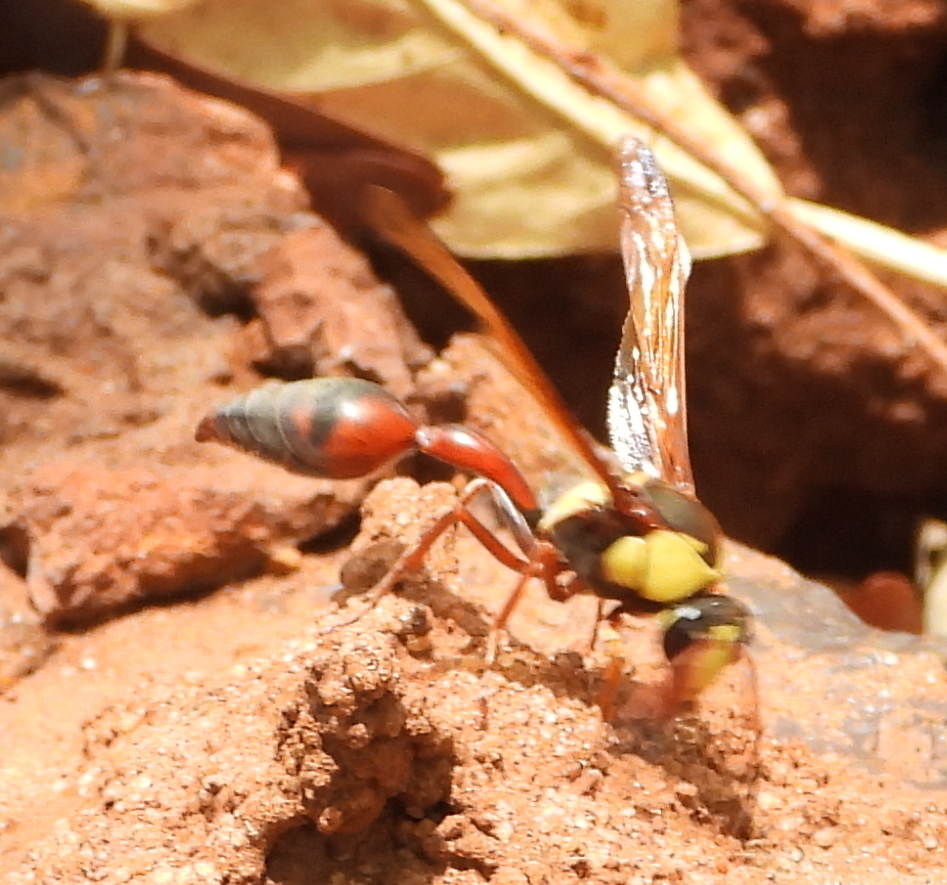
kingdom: Animalia
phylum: Arthropoda
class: Insecta
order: Hymenoptera
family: Eumenidae
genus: Delta
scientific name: Delta tropicale
